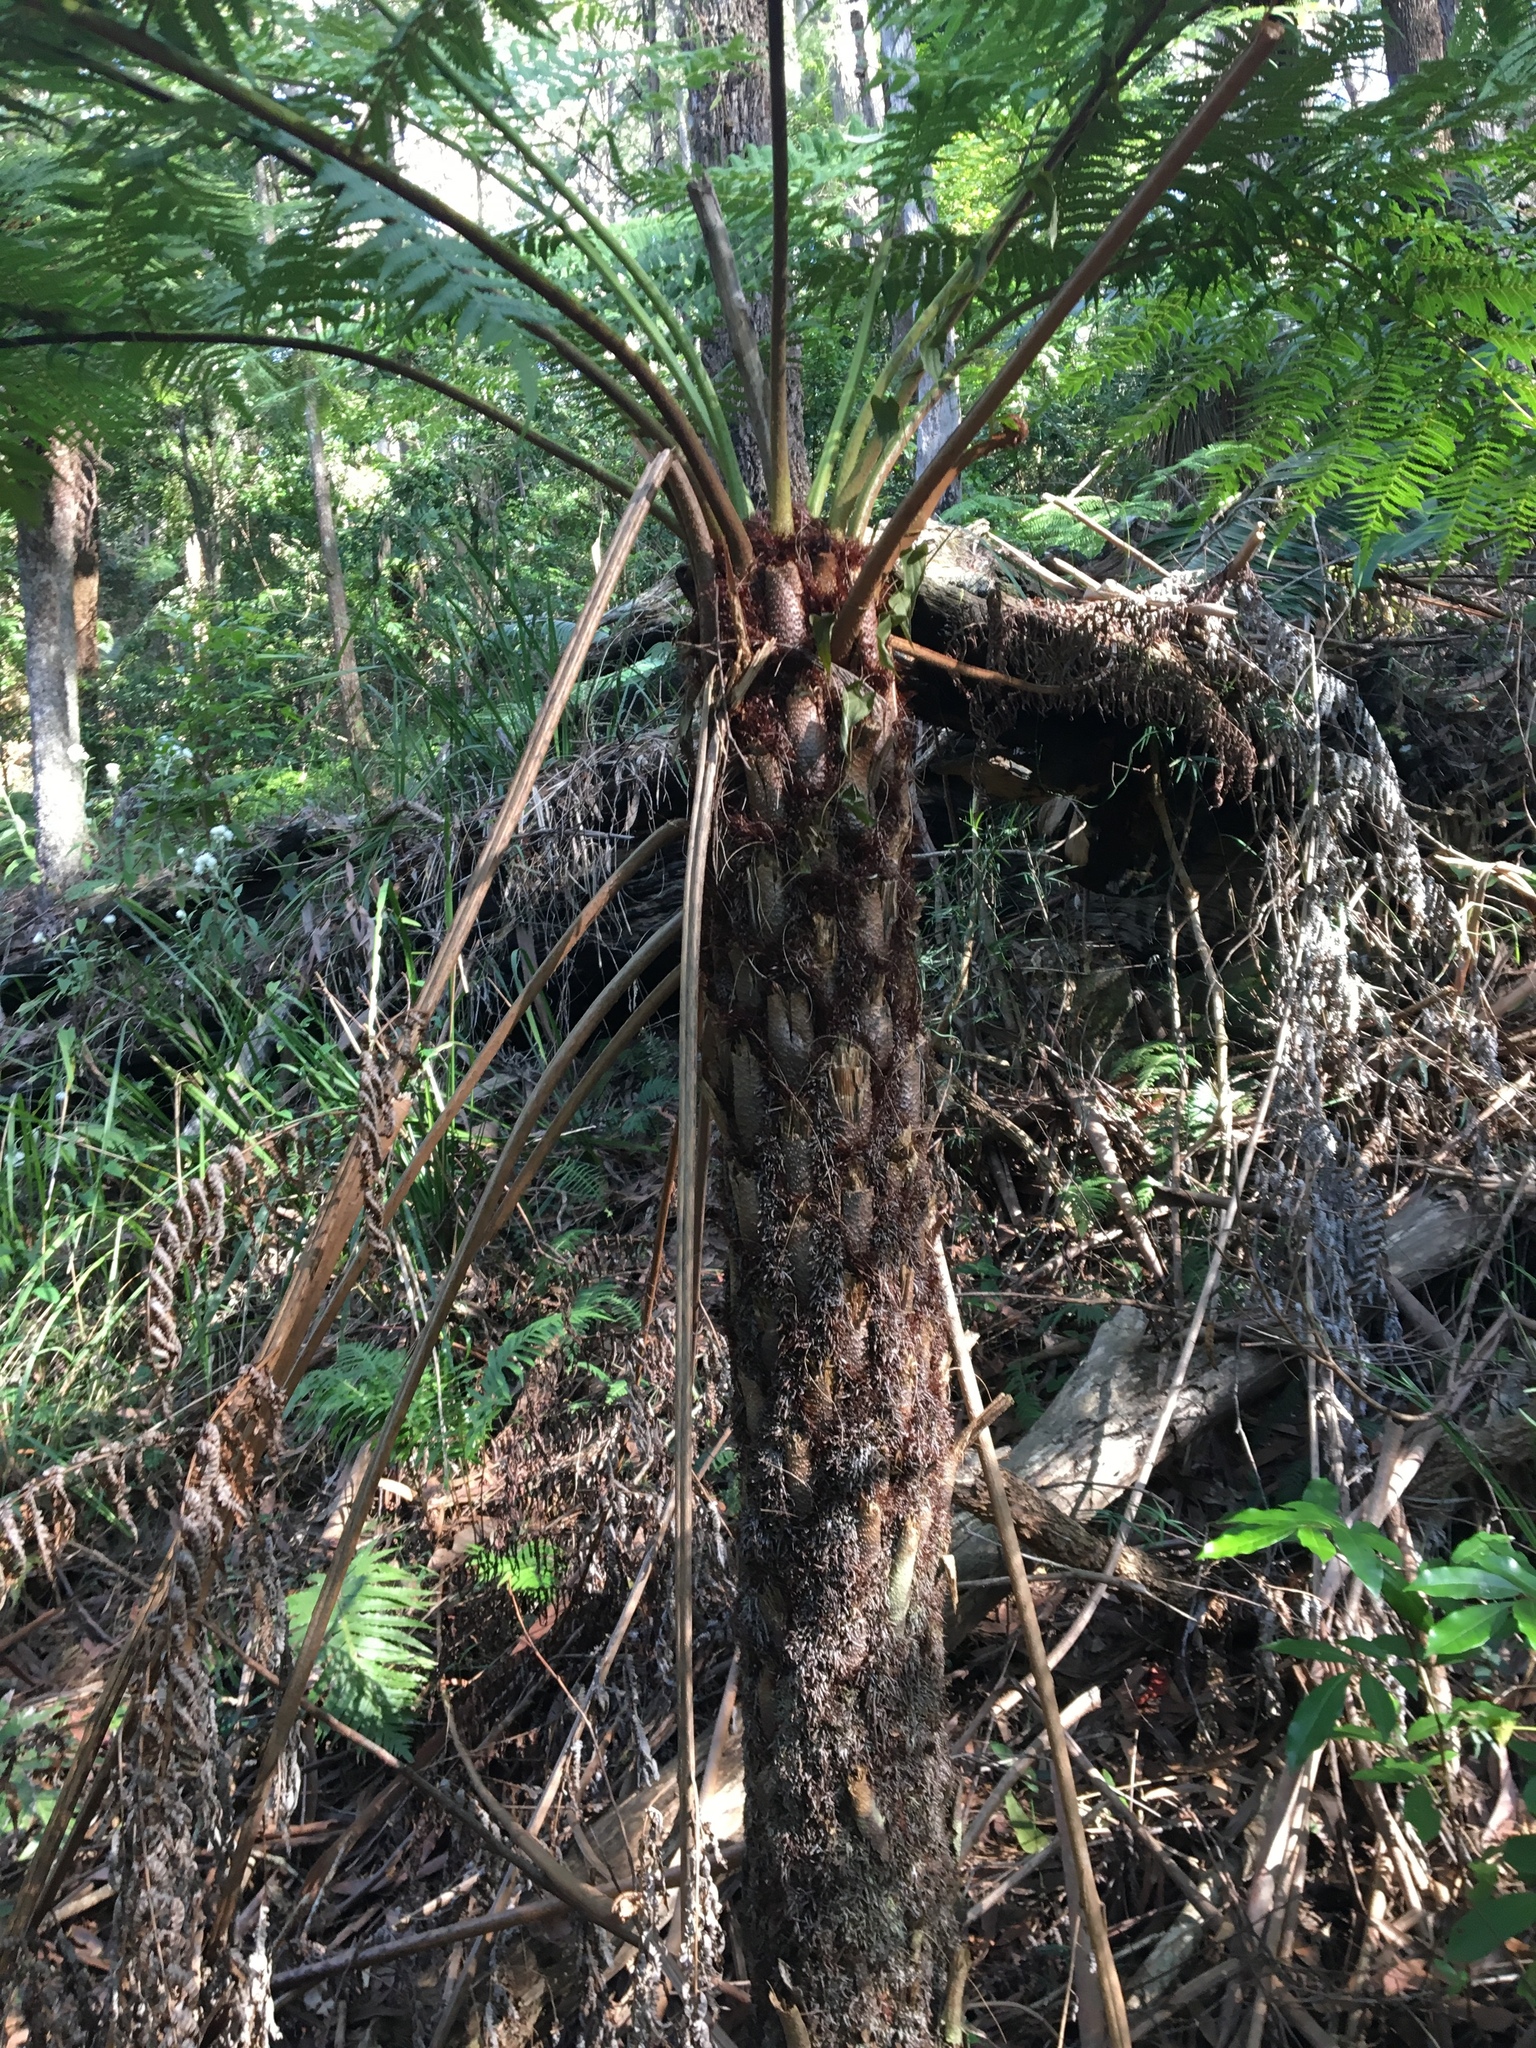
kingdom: Plantae
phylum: Tracheophyta
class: Polypodiopsida
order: Cyatheales
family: Cyatheaceae
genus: Alsophila
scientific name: Alsophila australis
